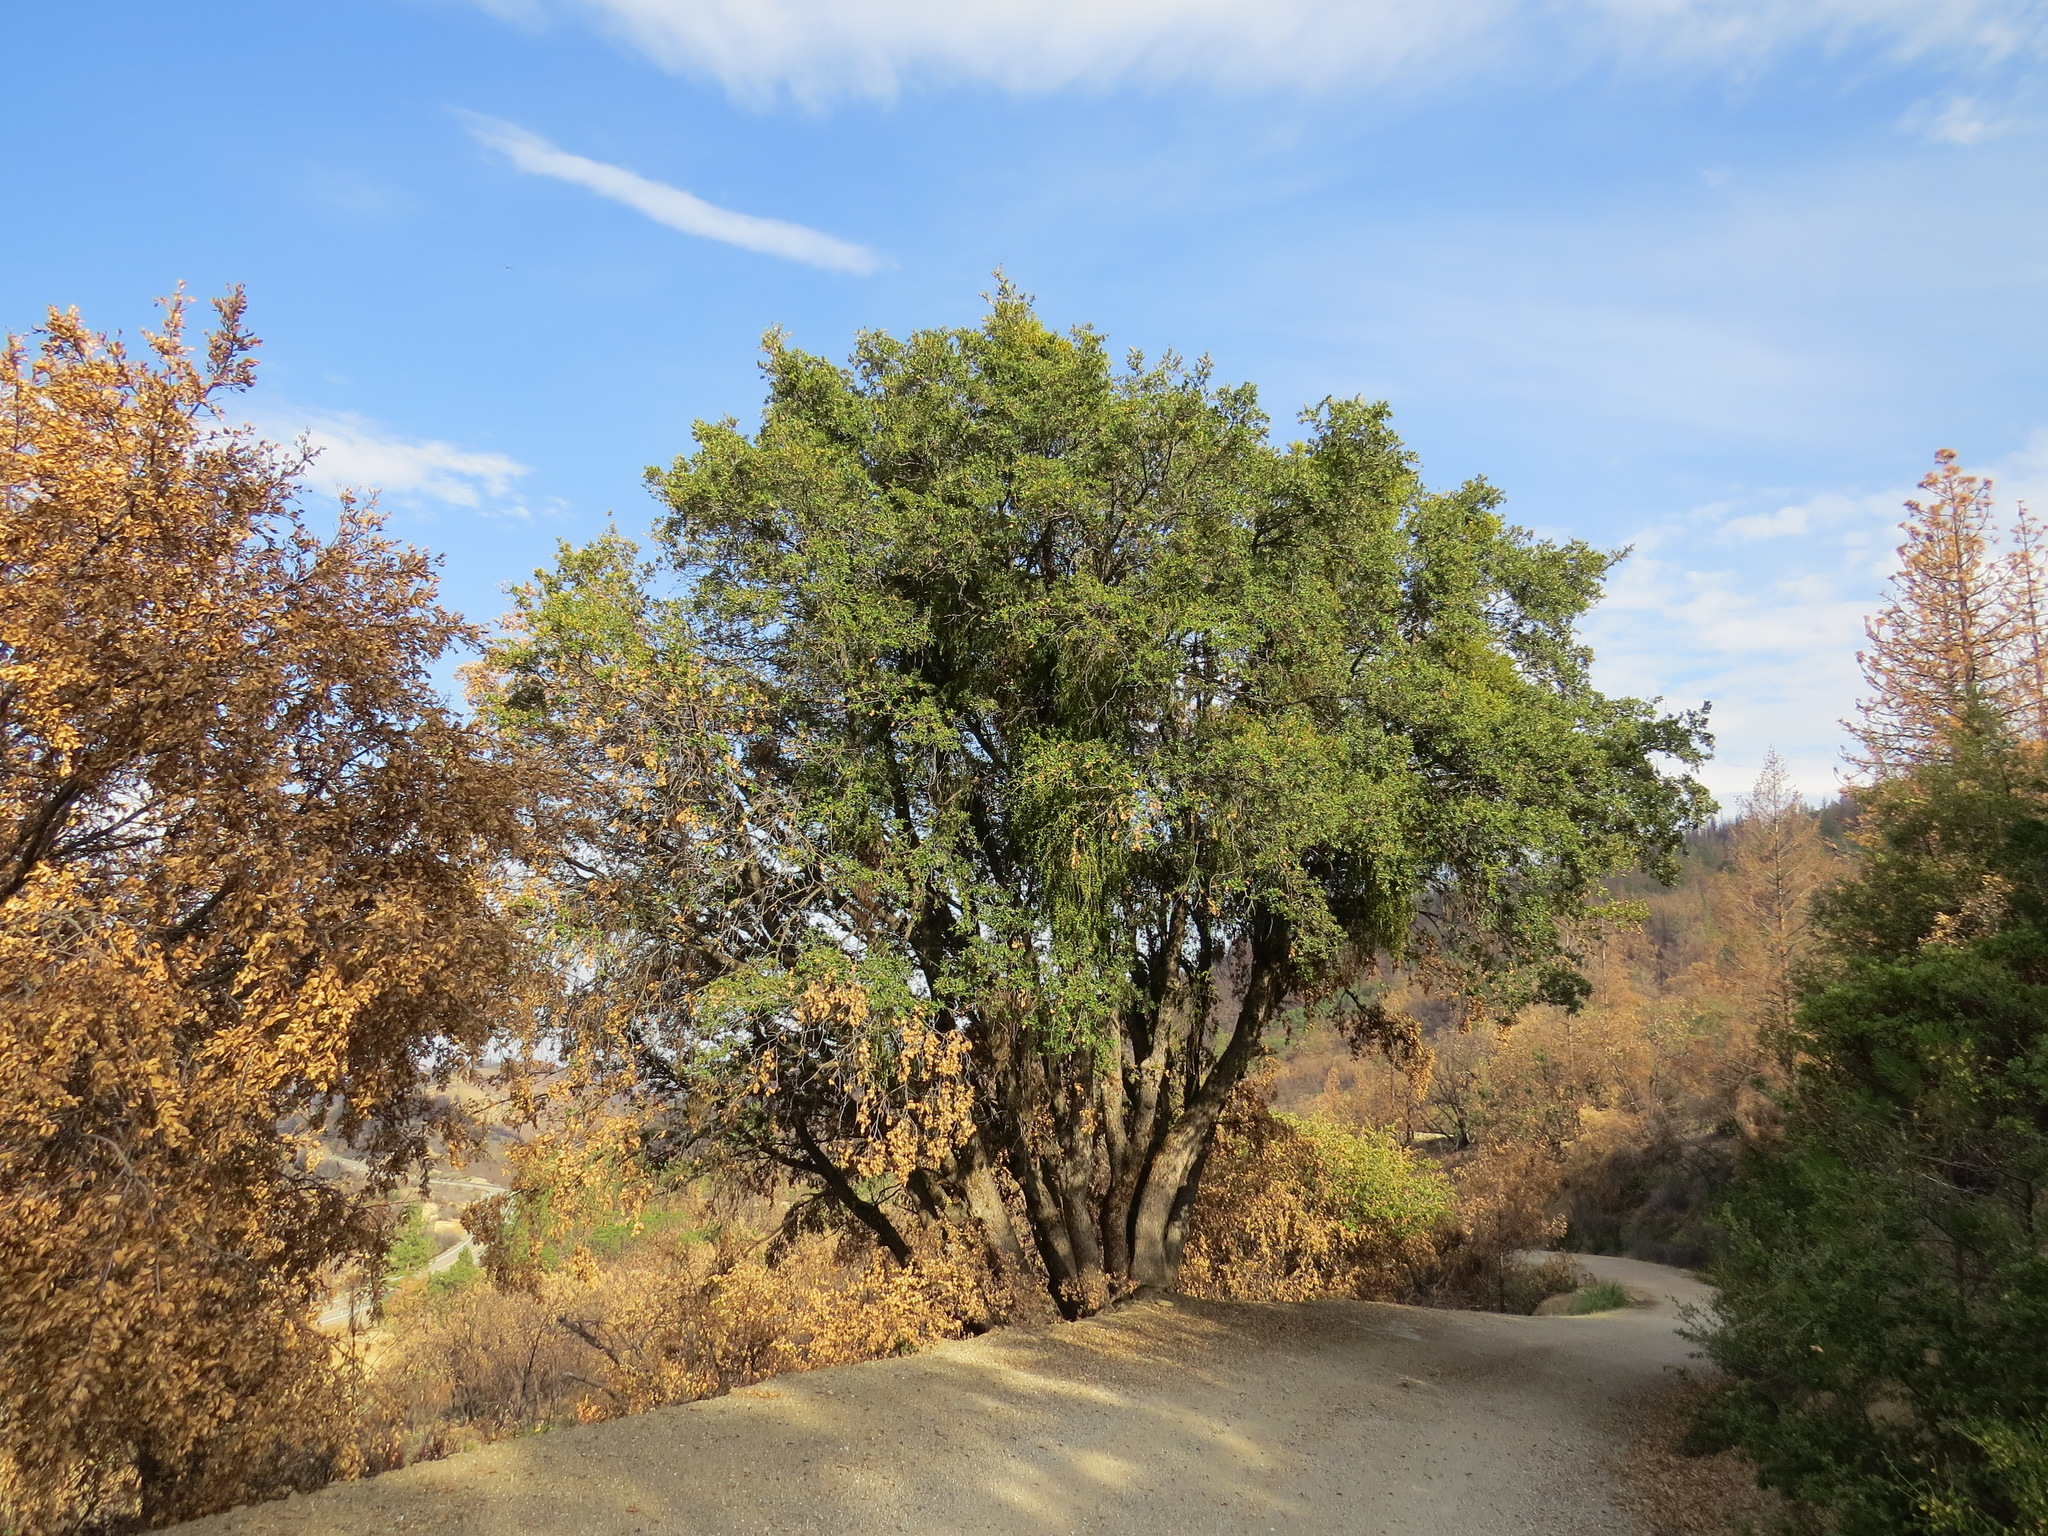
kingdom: Plantae
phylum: Tracheophyta
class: Magnoliopsida
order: Fagales
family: Fagaceae
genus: Quercus
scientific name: Quercus chrysolepis
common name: Canyon live oak
